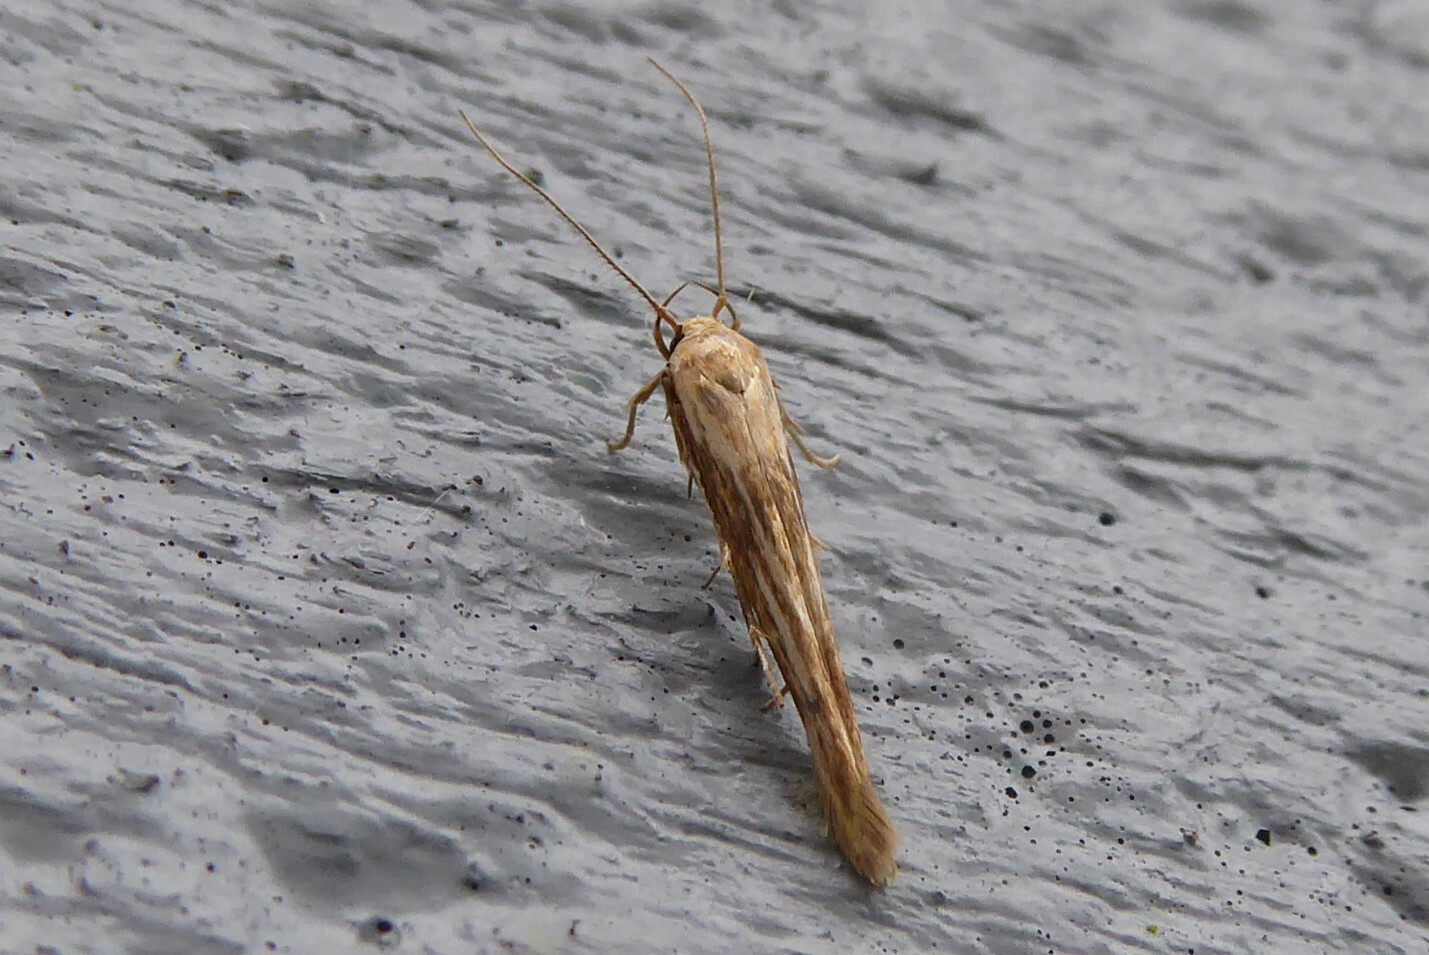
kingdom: Animalia
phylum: Arthropoda
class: Insecta
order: Lepidoptera
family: Stathmopodidae
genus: Stathmopoda
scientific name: Stathmopoda aposema
